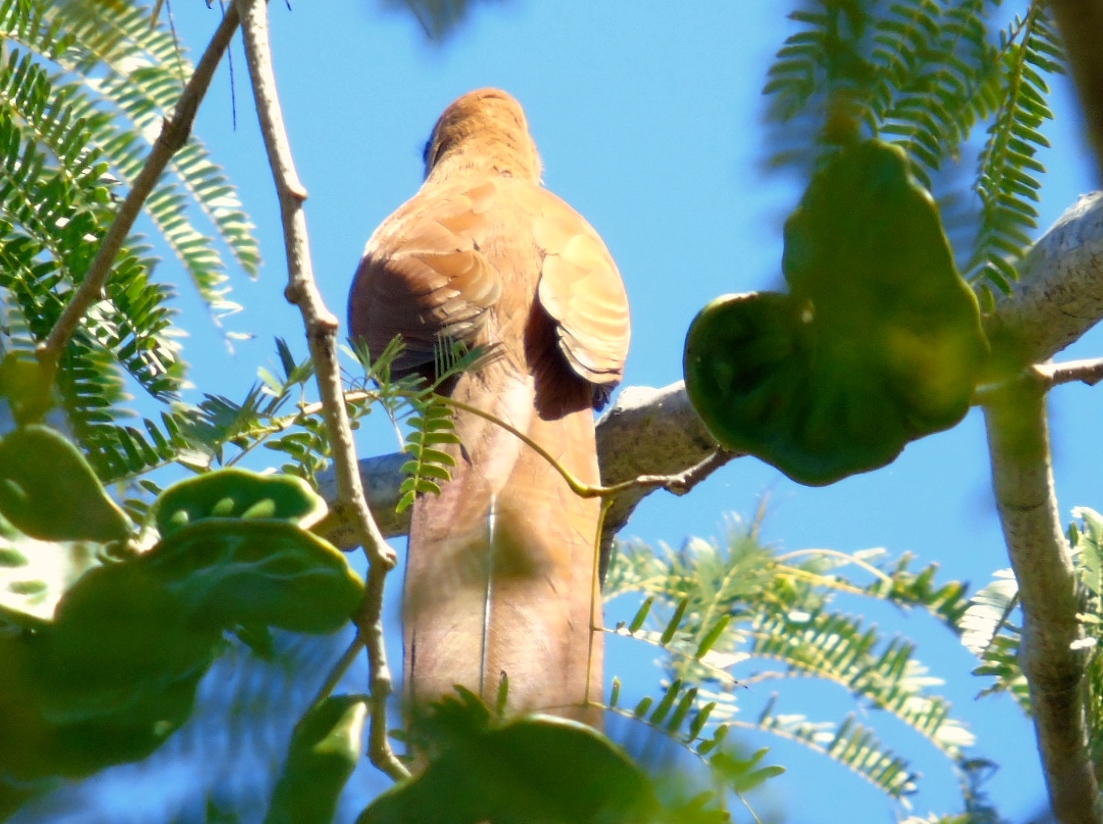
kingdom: Animalia
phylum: Chordata
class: Aves
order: Cuculiformes
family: Cuculidae
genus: Piaya
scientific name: Piaya cayana
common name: Squirrel cuckoo
